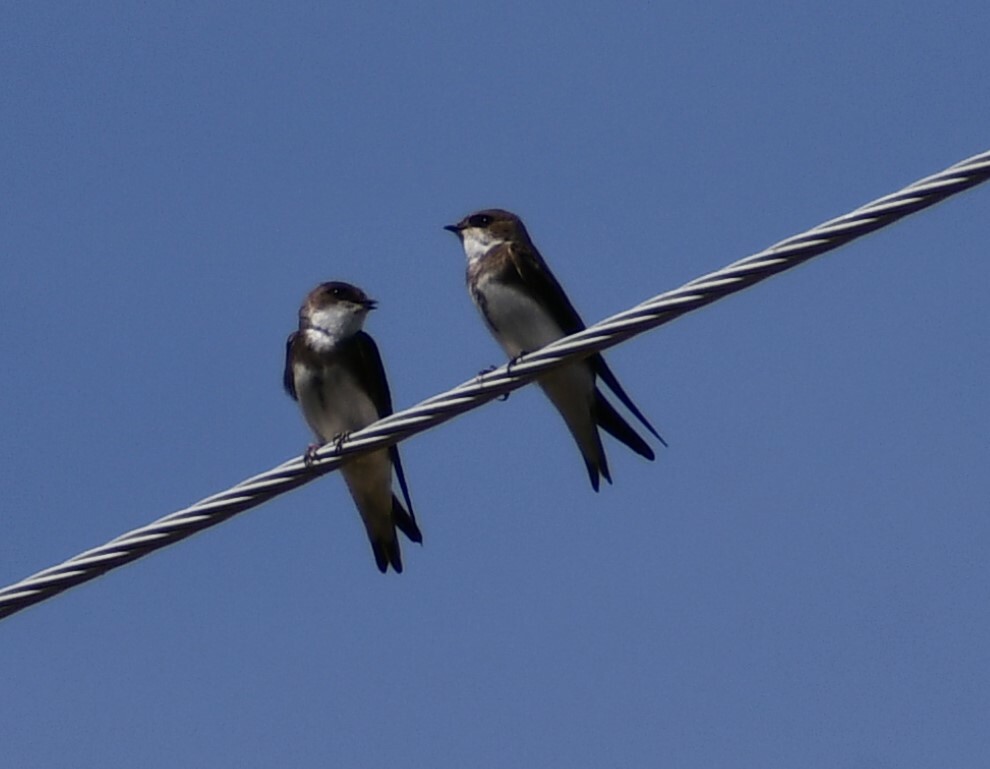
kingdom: Animalia
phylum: Chordata
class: Aves
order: Passeriformes
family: Hirundinidae
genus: Riparia
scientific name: Riparia riparia
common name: Sand martin
